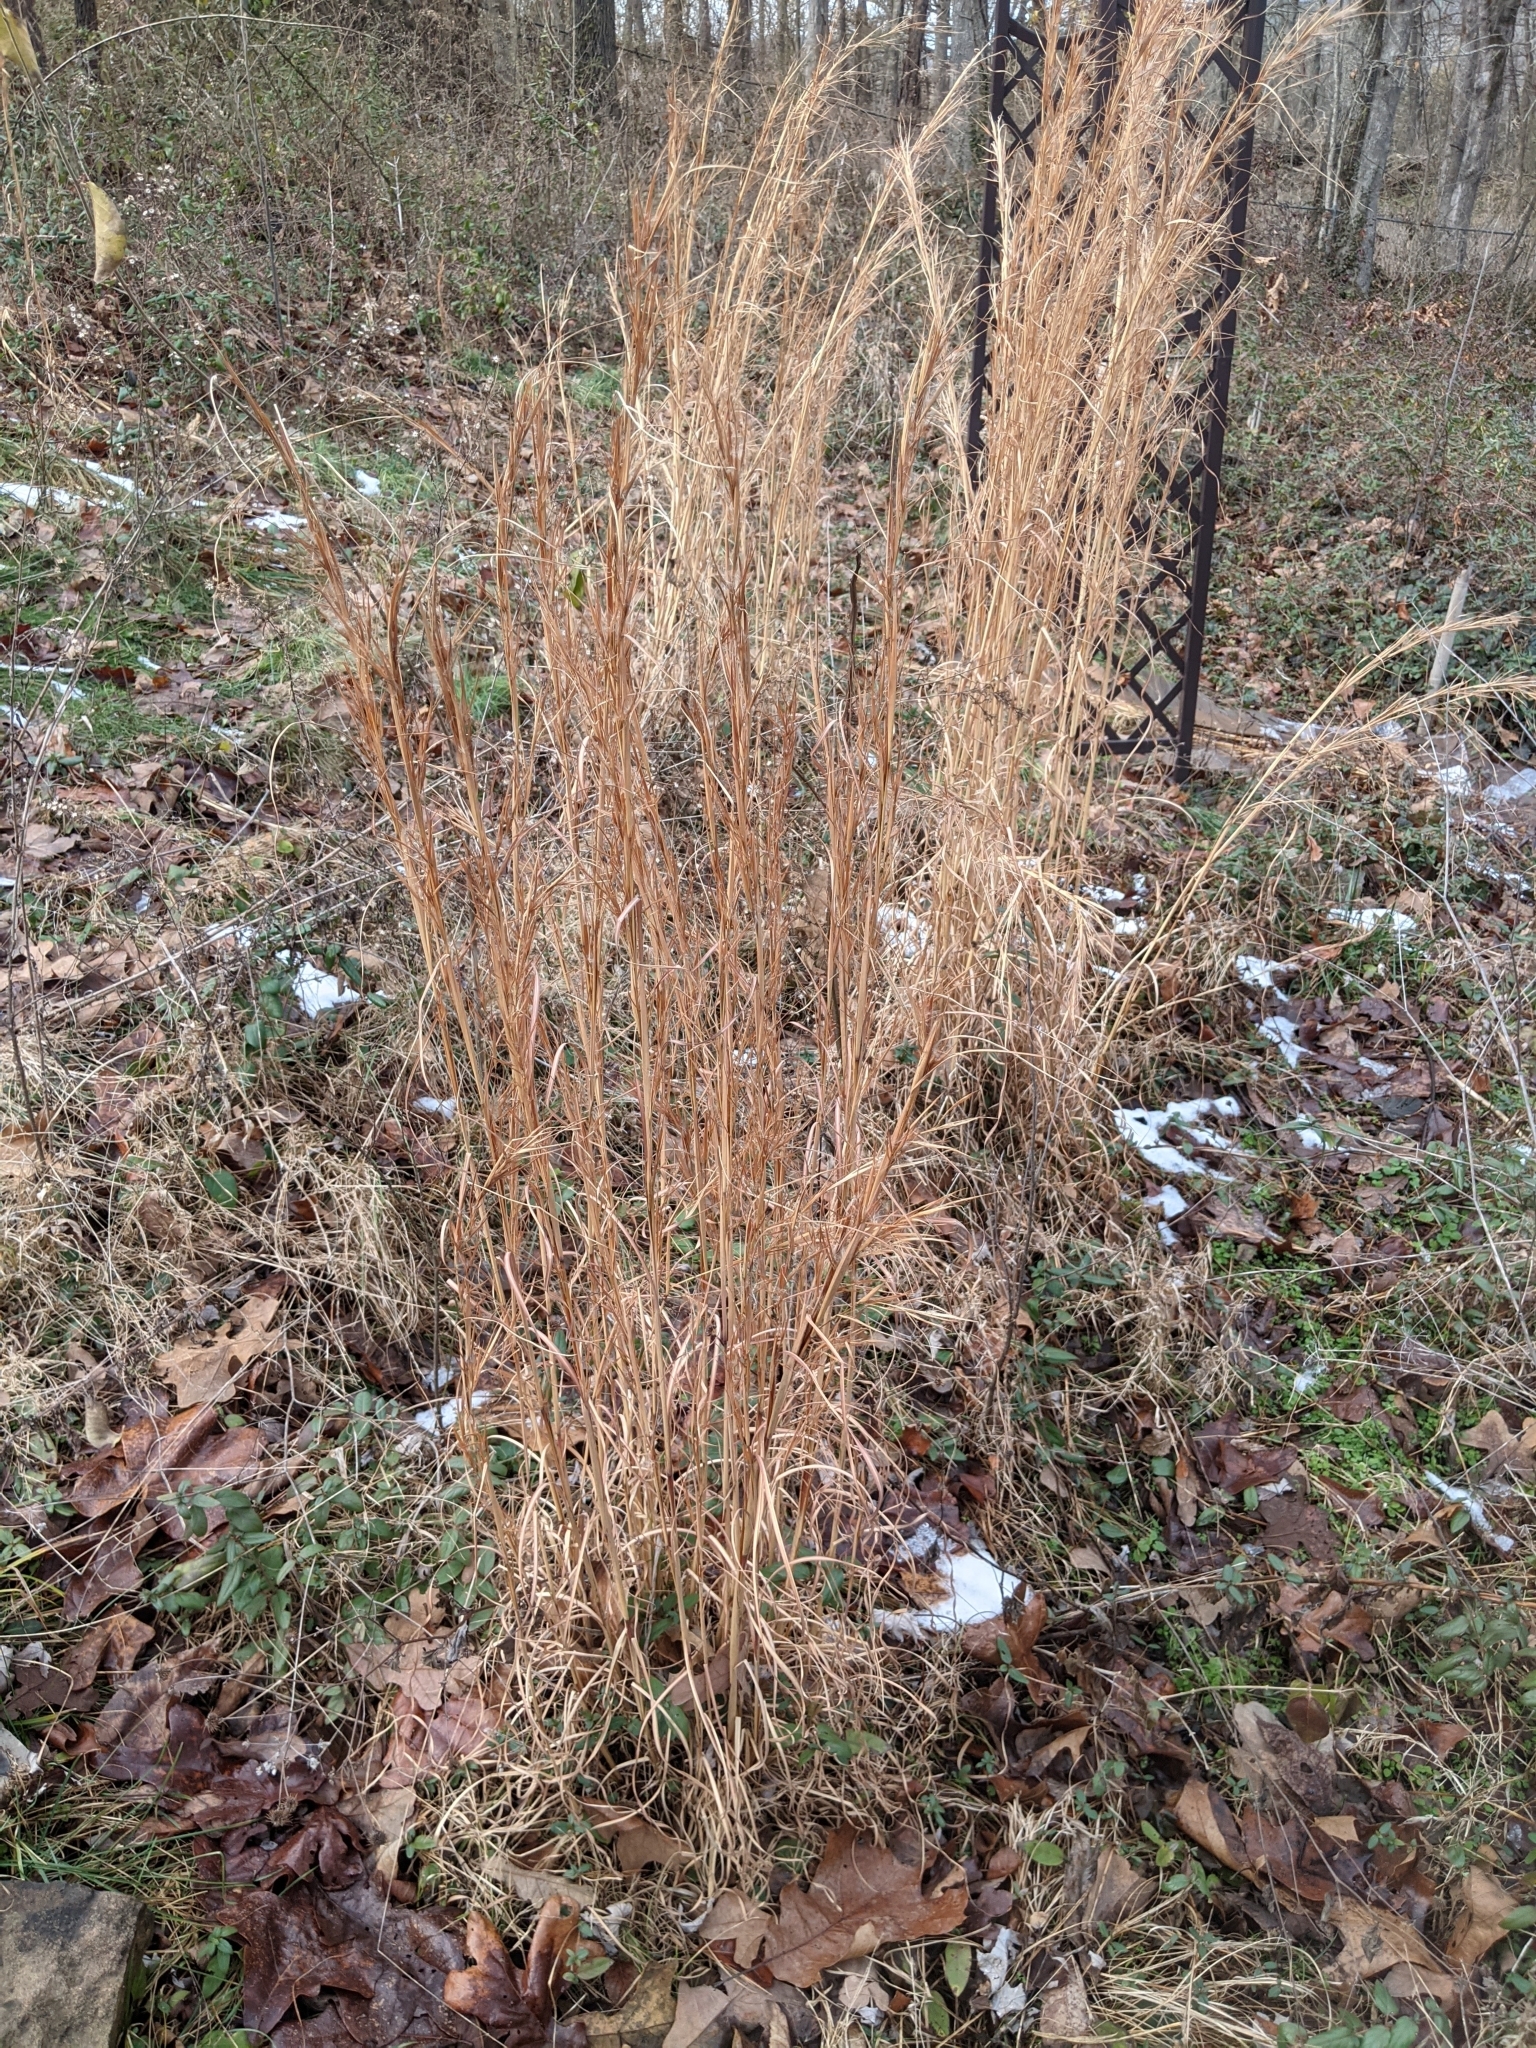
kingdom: Plantae
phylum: Tracheophyta
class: Liliopsida
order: Poales
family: Poaceae
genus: Andropogon
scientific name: Andropogon virginicus
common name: Broomsedge bluestem
